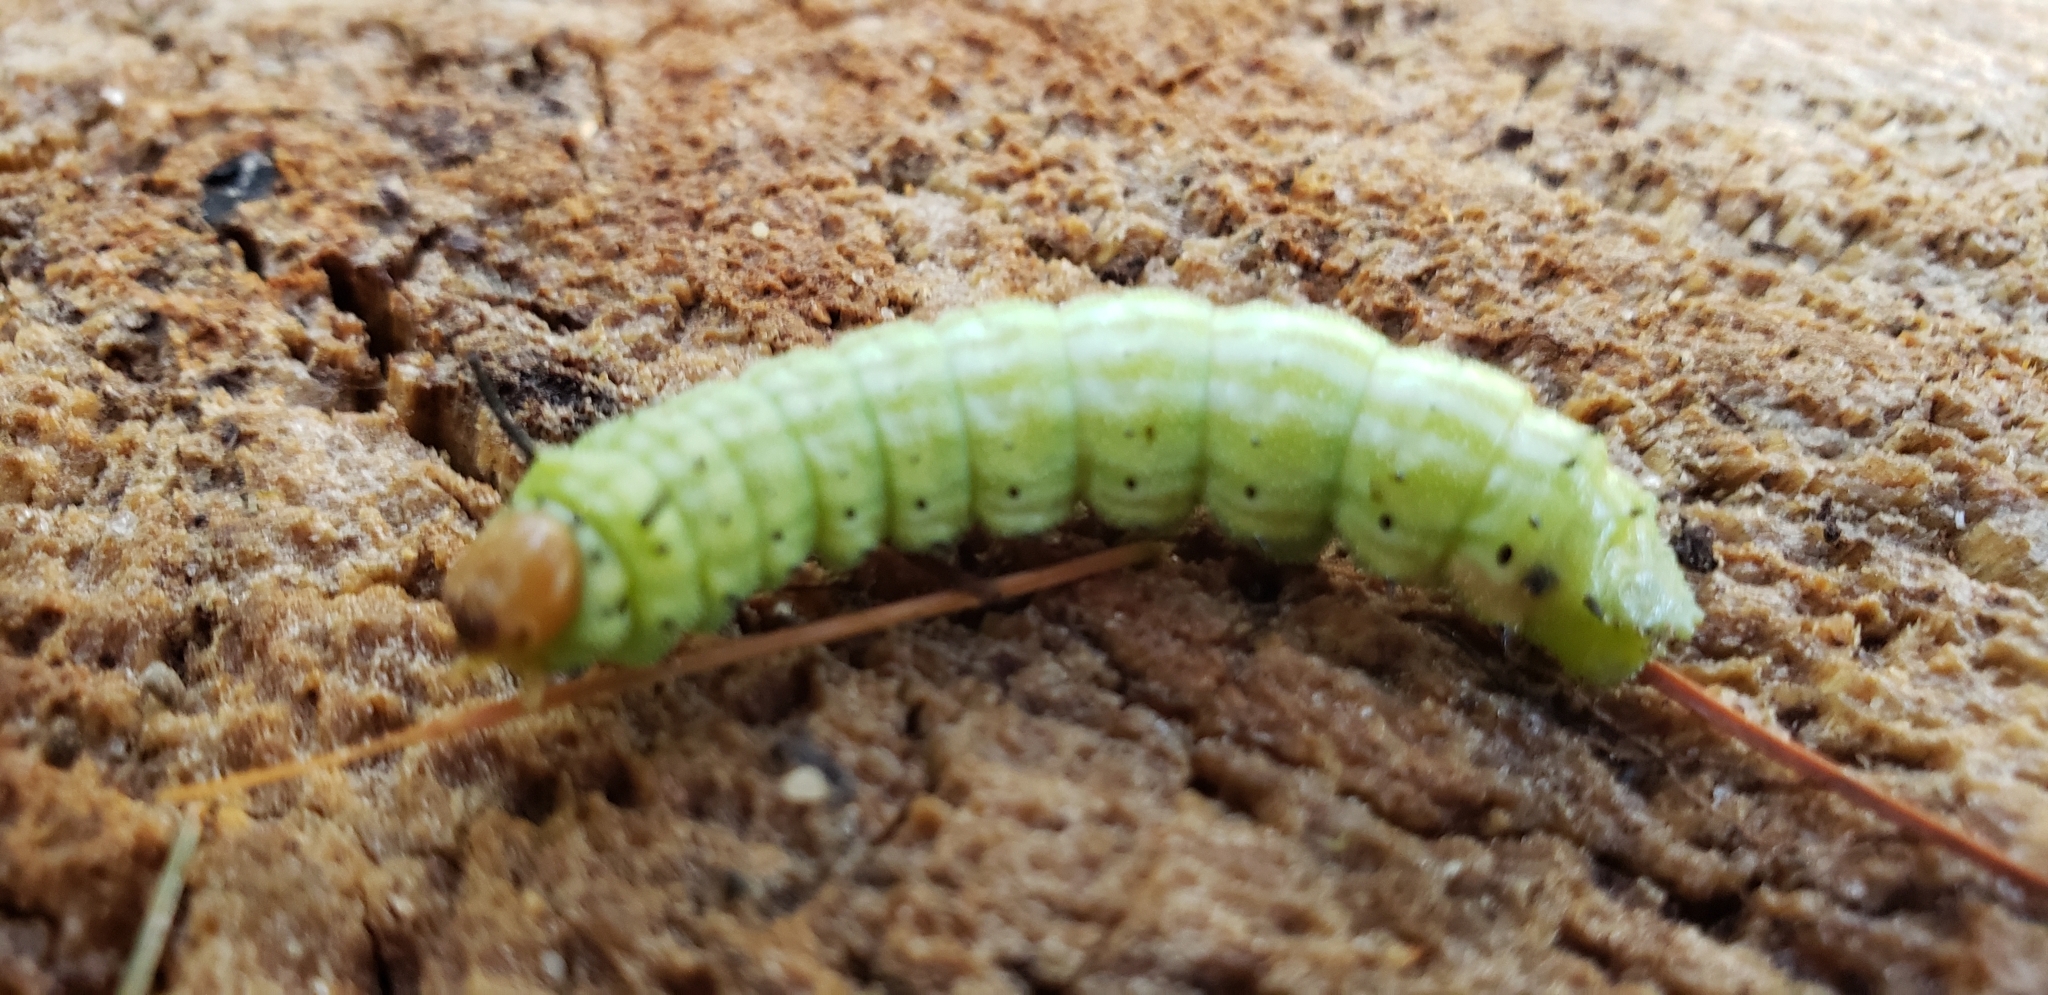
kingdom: Animalia
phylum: Arthropoda
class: Insecta
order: Lepidoptera
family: Saturniidae
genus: Dryocampa
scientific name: Dryocampa rubicunda
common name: Rosy maple moth
